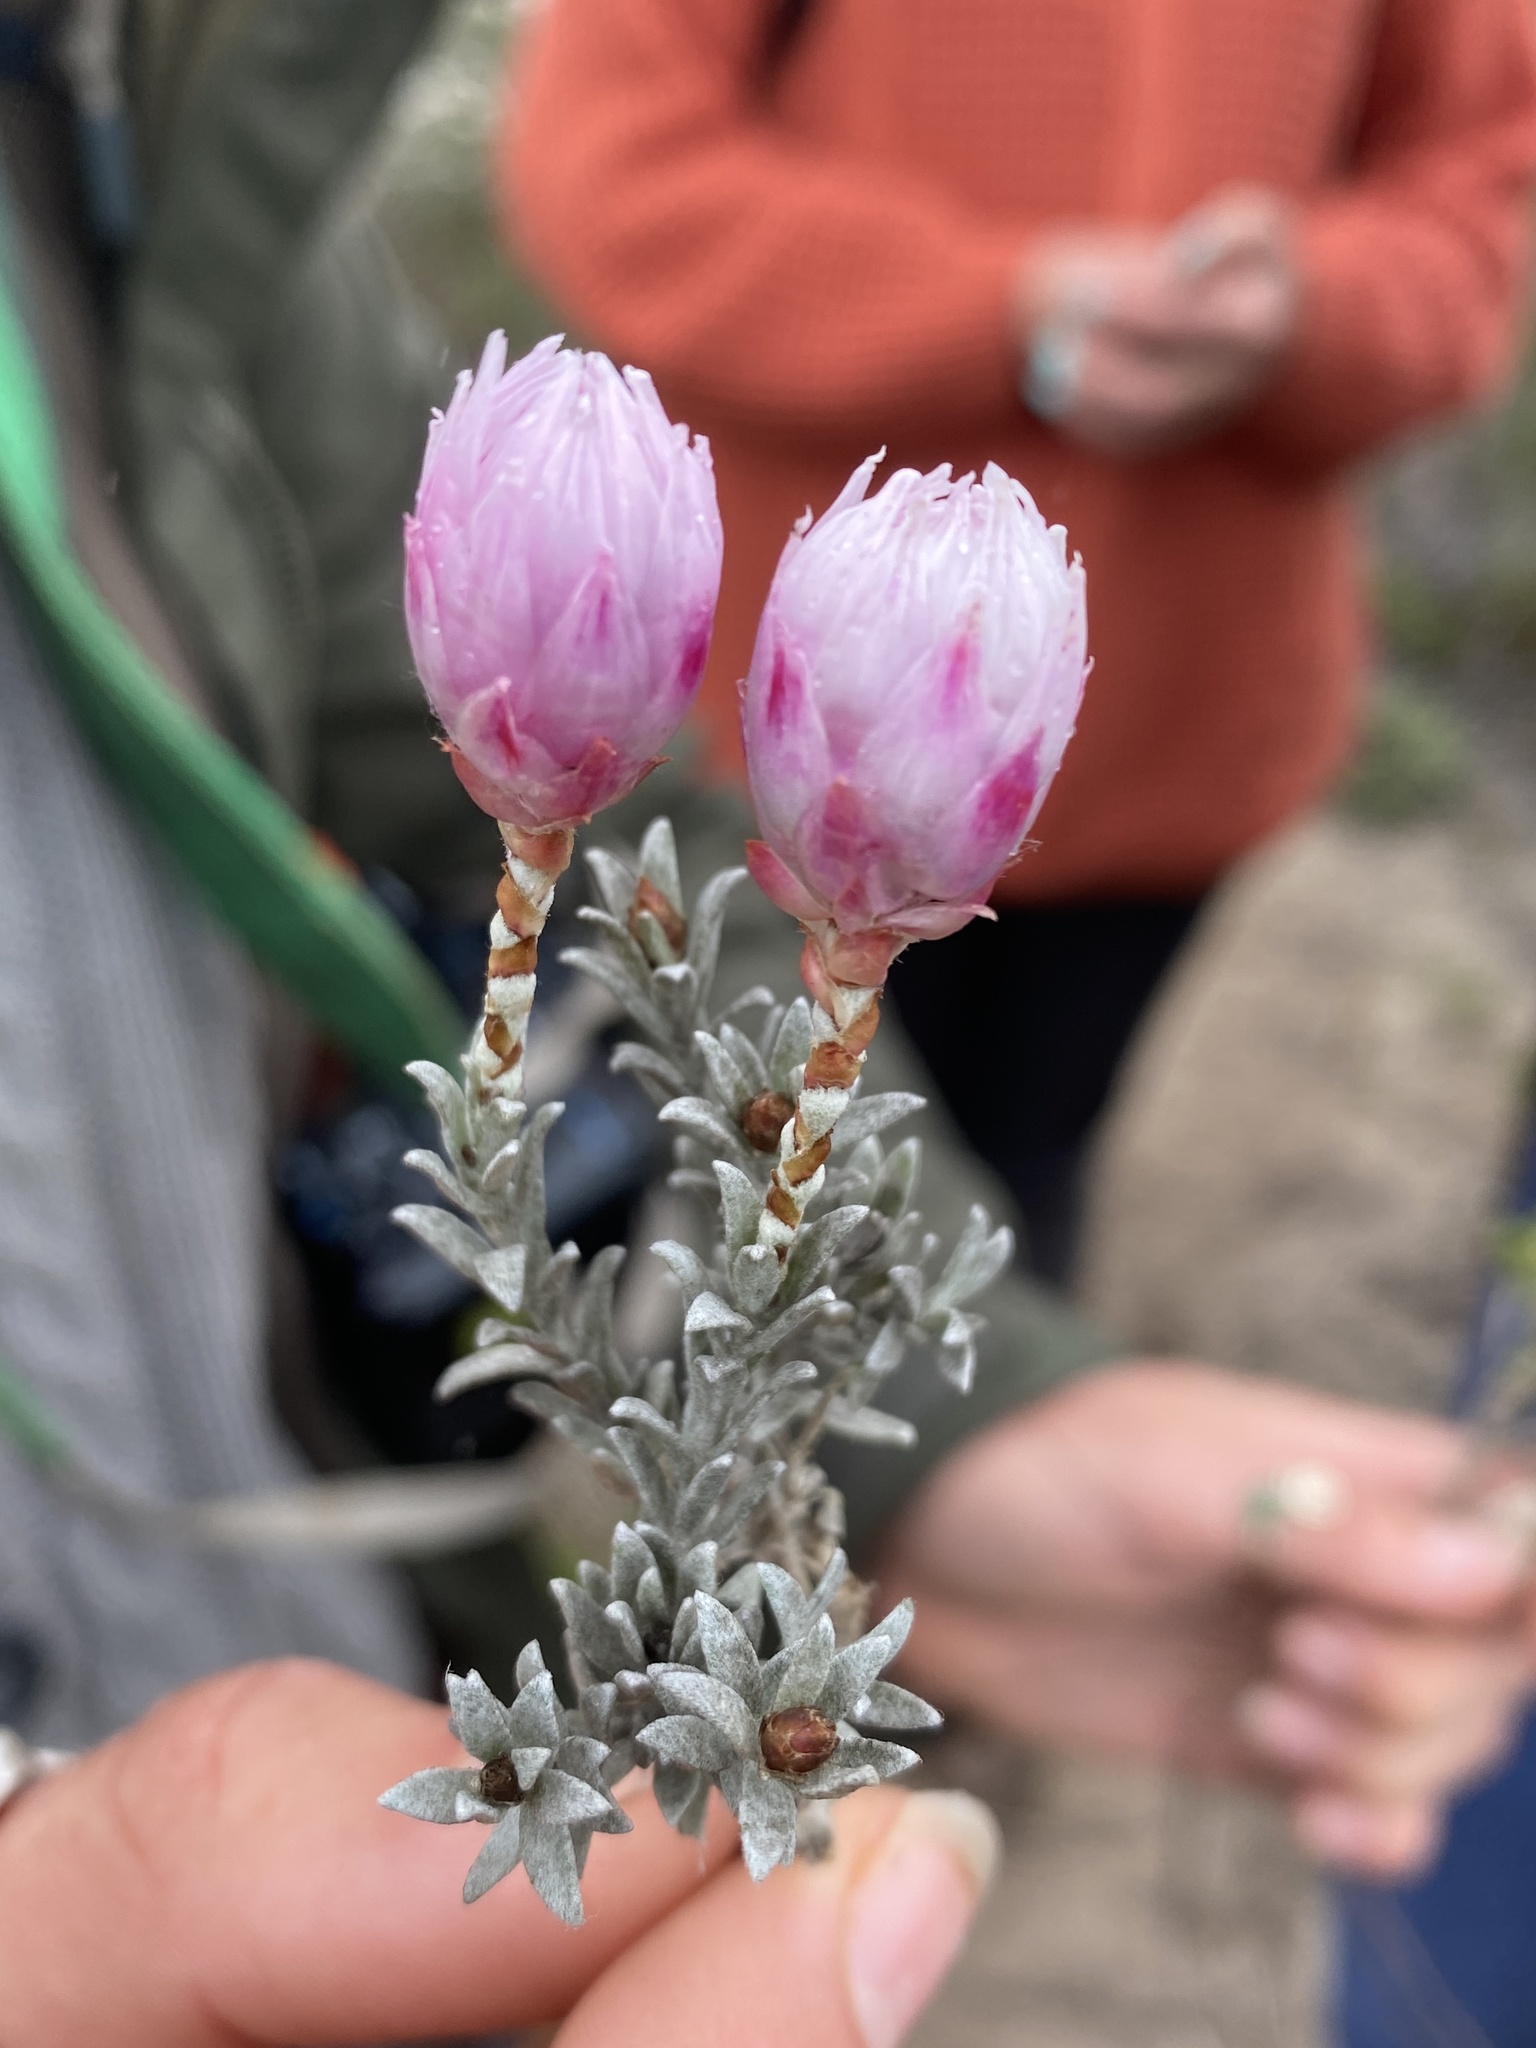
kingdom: Plantae
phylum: Tracheophyta
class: Magnoliopsida
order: Asterales
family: Asteraceae
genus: Syncarpha
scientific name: Syncarpha canescens
